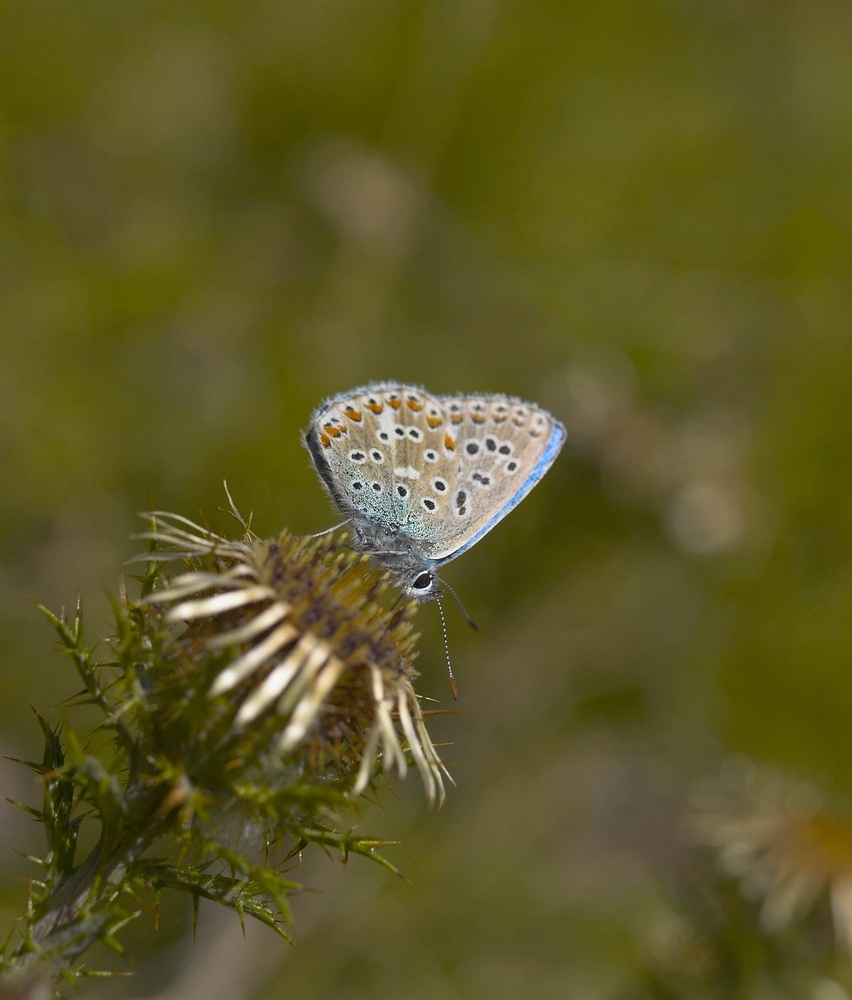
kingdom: Animalia
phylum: Arthropoda
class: Insecta
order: Lepidoptera
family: Lycaenidae
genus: Lysandra
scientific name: Lysandra bellargus
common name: Adonis blue
